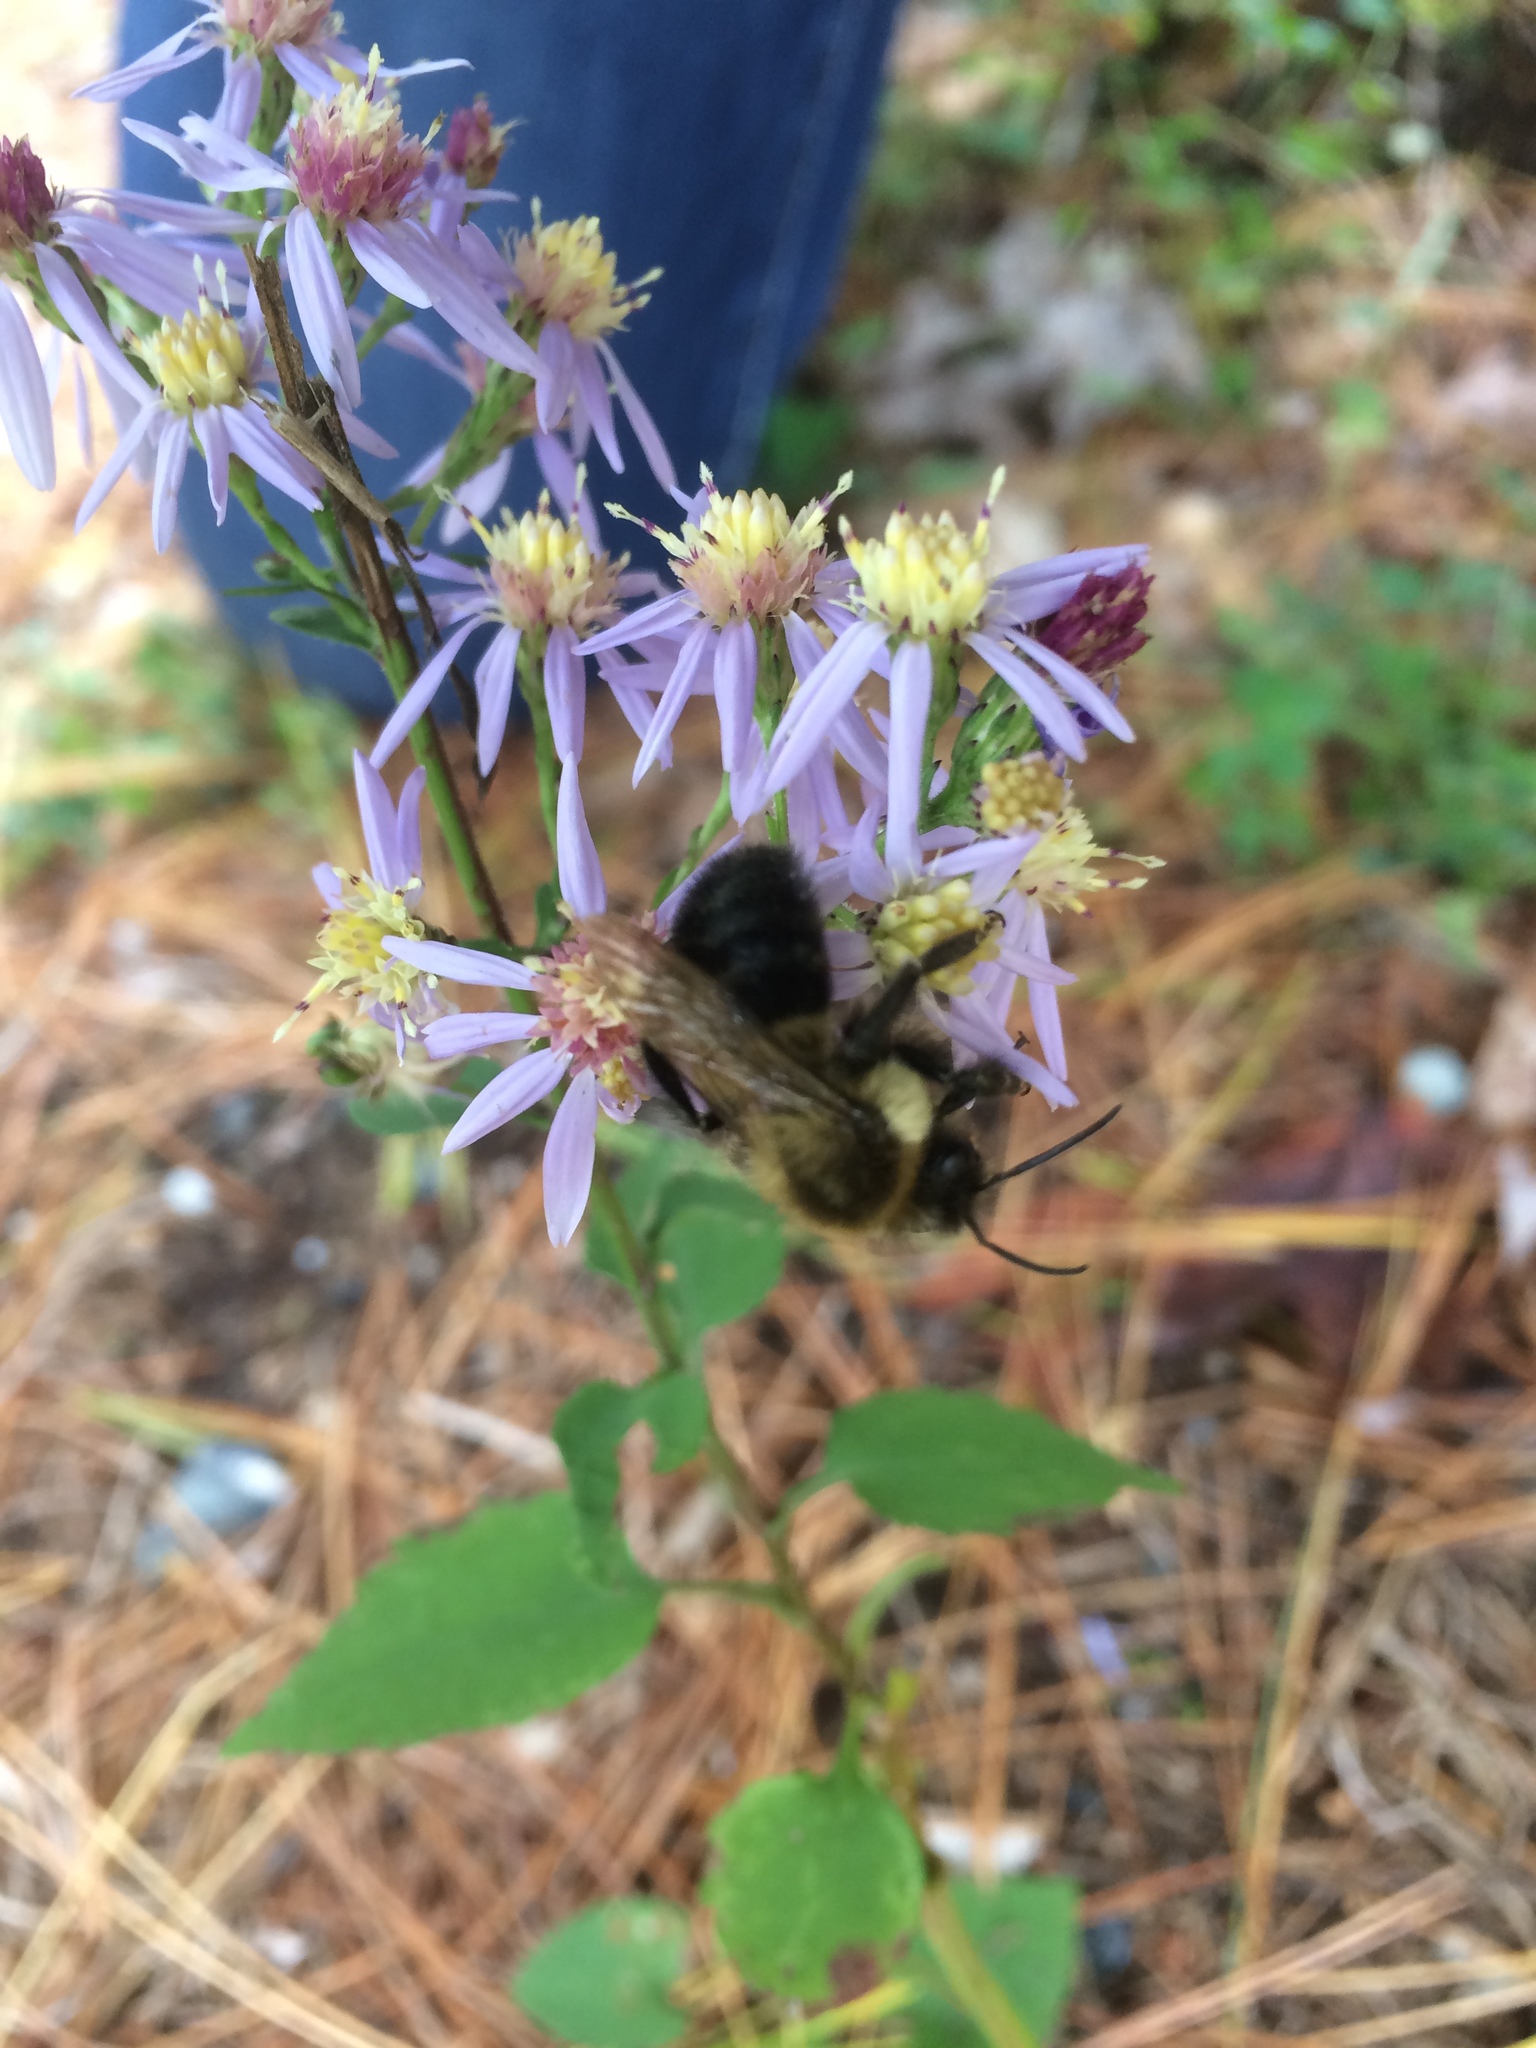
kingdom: Animalia
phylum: Arthropoda
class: Insecta
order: Hymenoptera
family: Apidae
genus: Bombus
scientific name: Bombus impatiens
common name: Common eastern bumble bee
